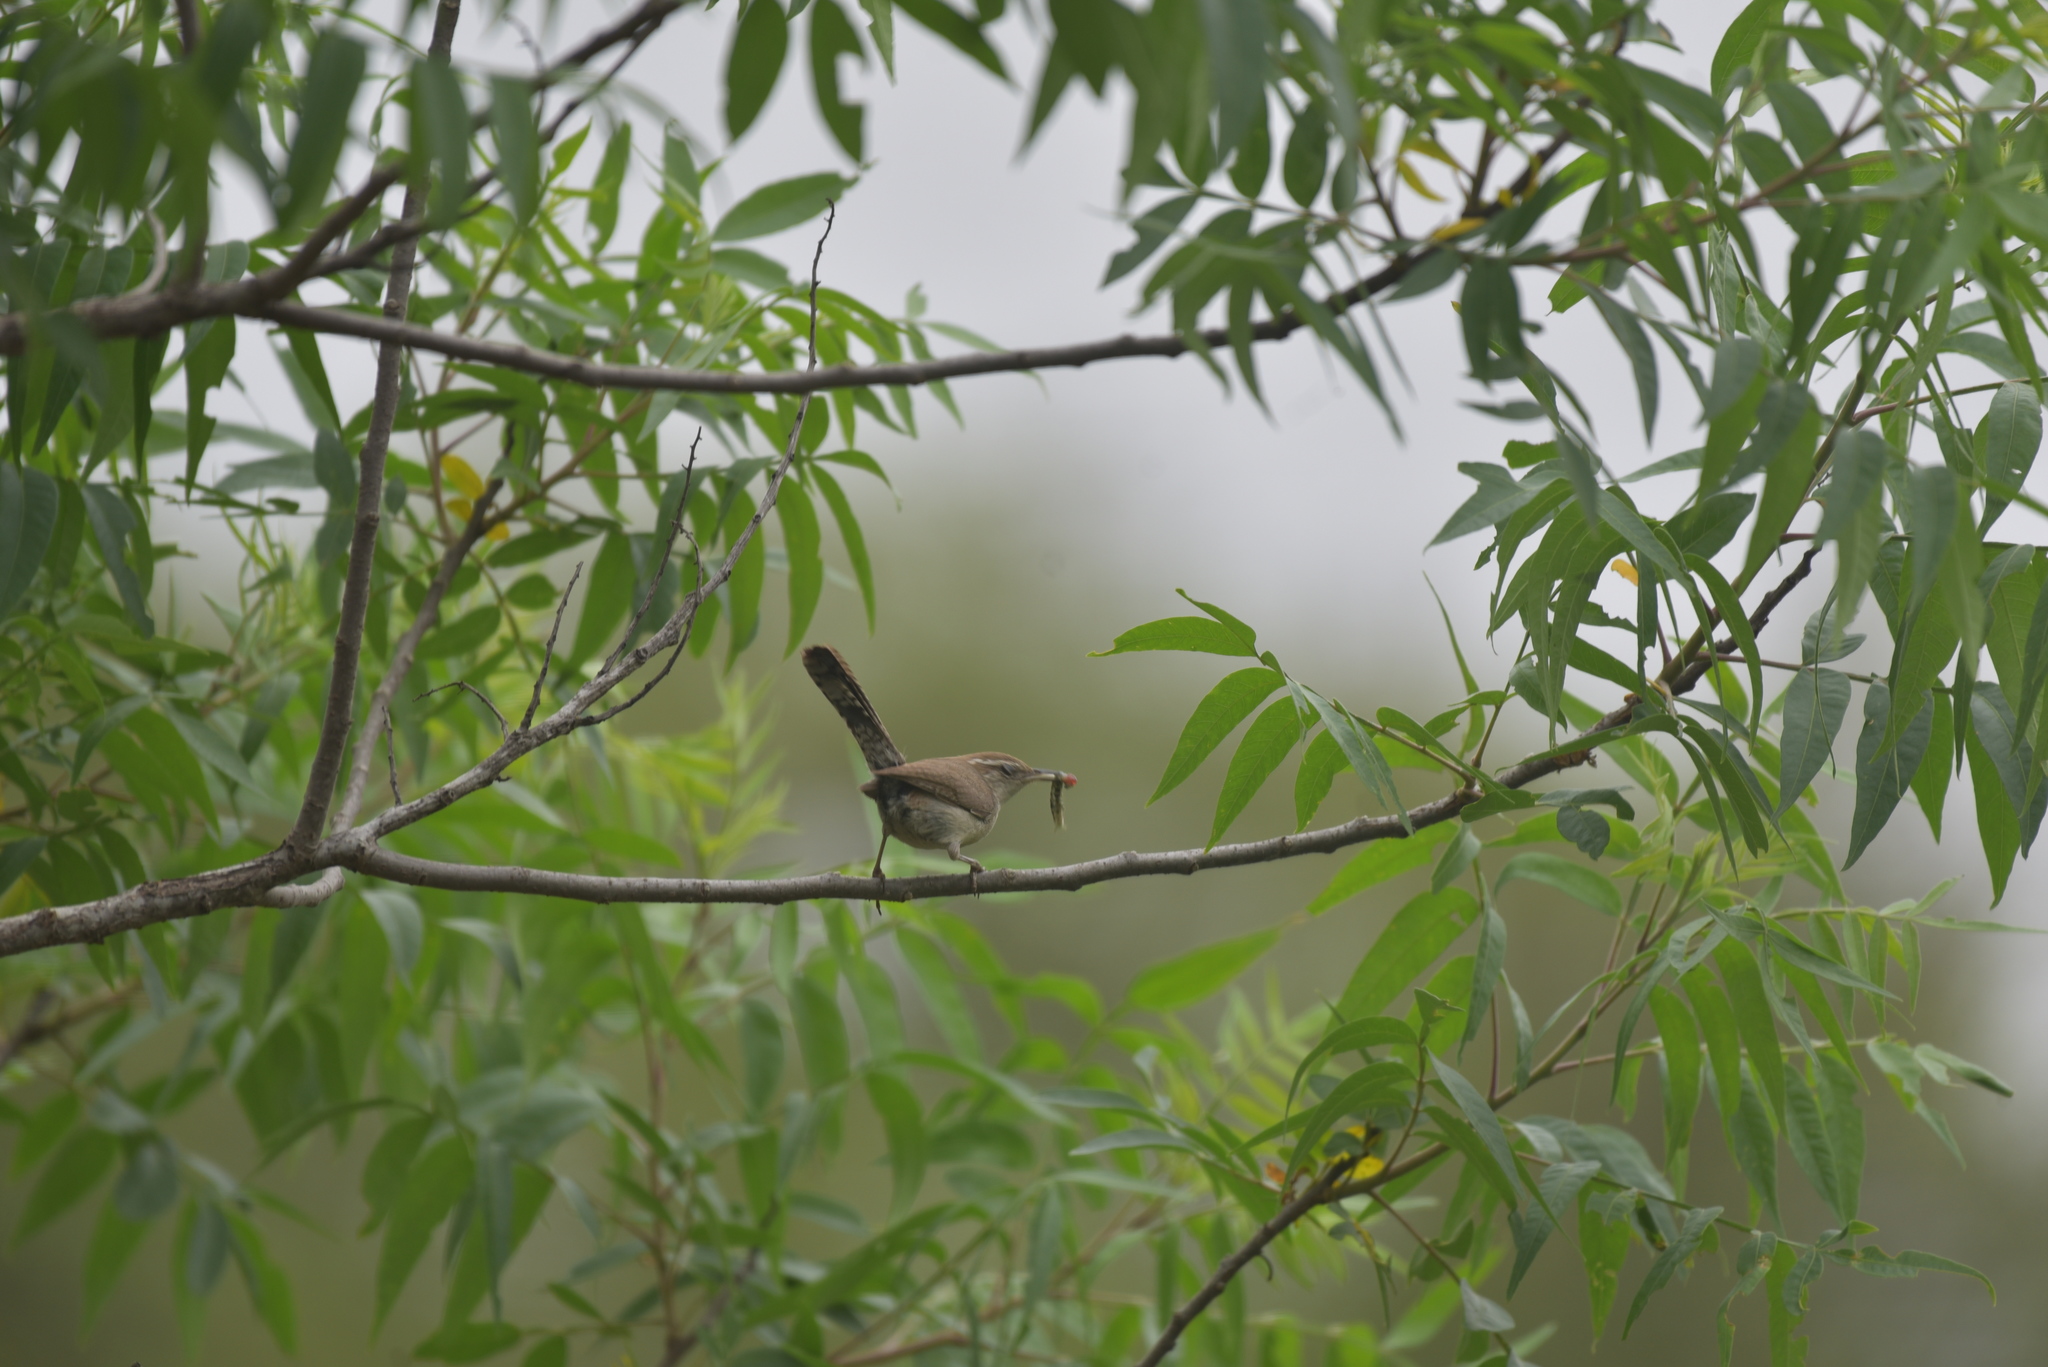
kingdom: Animalia
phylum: Chordata
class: Aves
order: Passeriformes
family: Troglodytidae
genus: Thryomanes
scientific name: Thryomanes bewickii
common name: Bewick's wren
